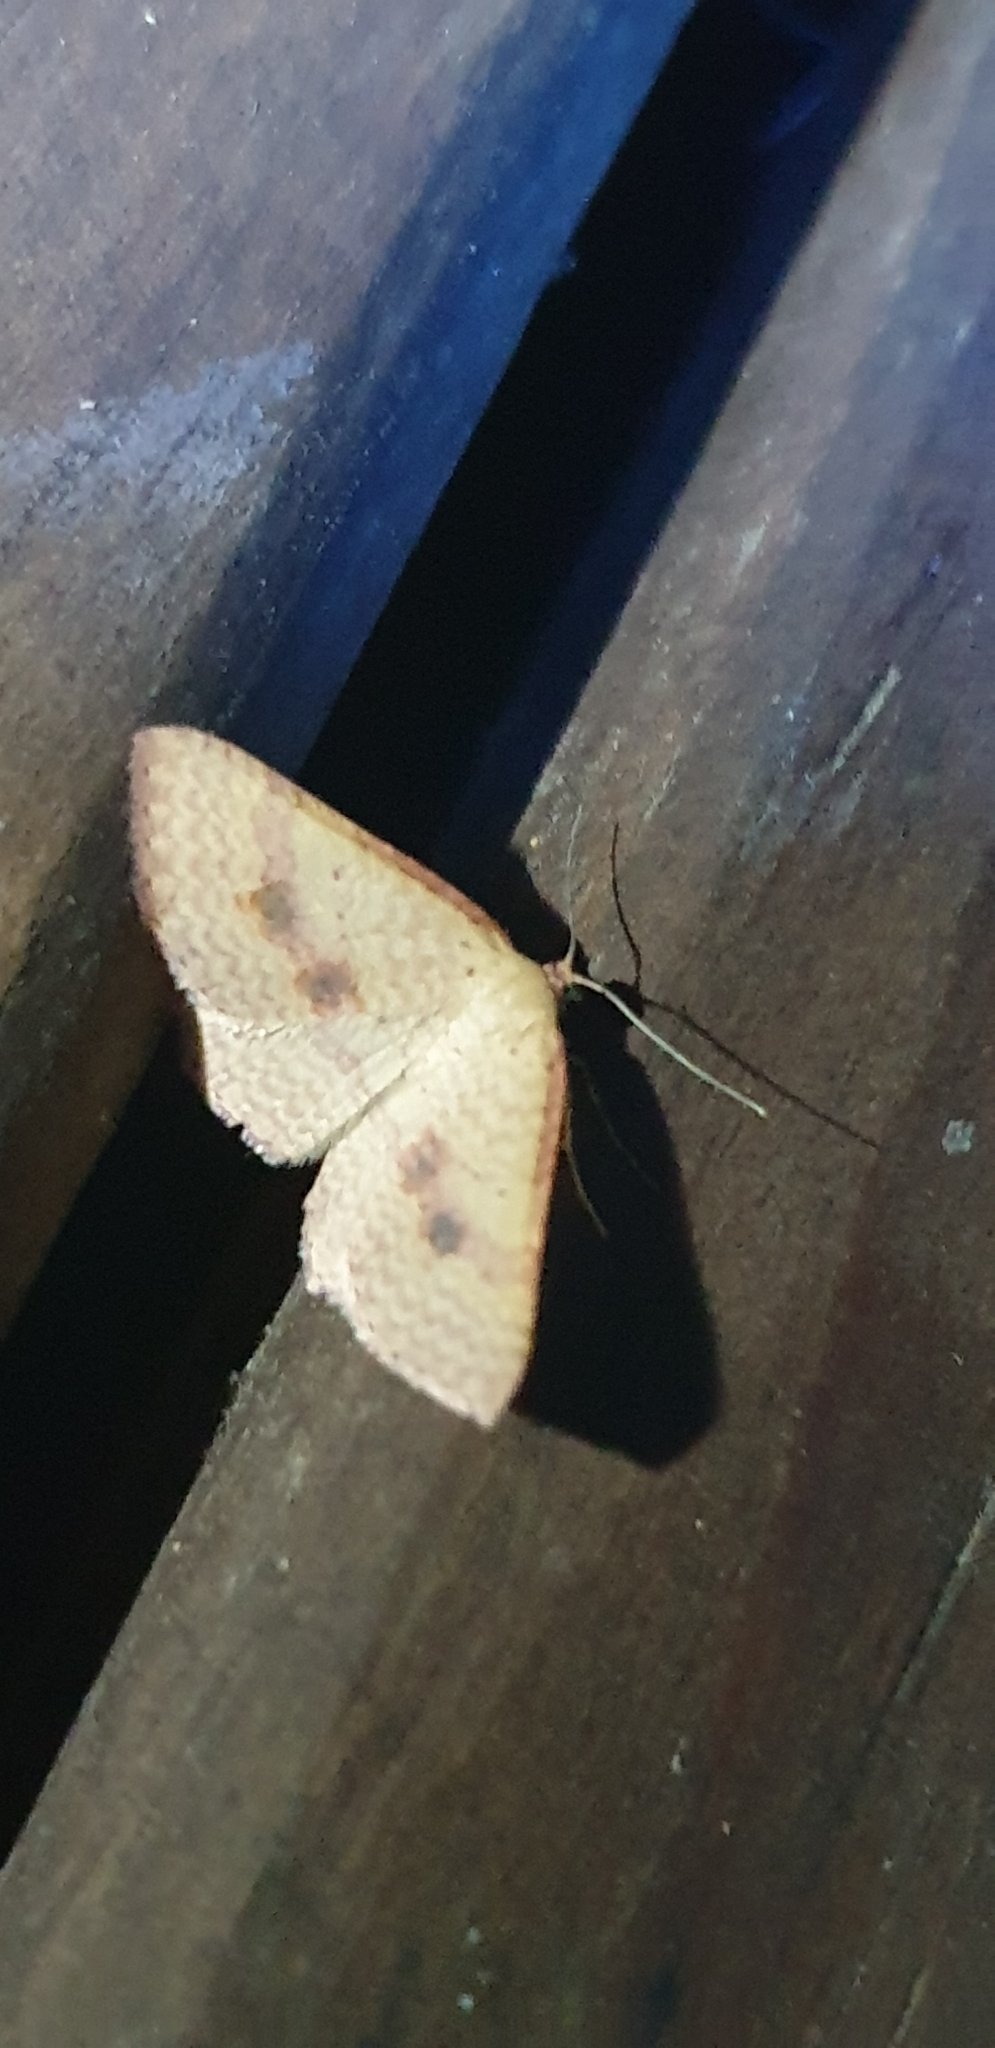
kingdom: Animalia
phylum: Arthropoda
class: Insecta
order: Lepidoptera
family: Geometridae
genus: Epicyme
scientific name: Epicyme rubropunctaria
